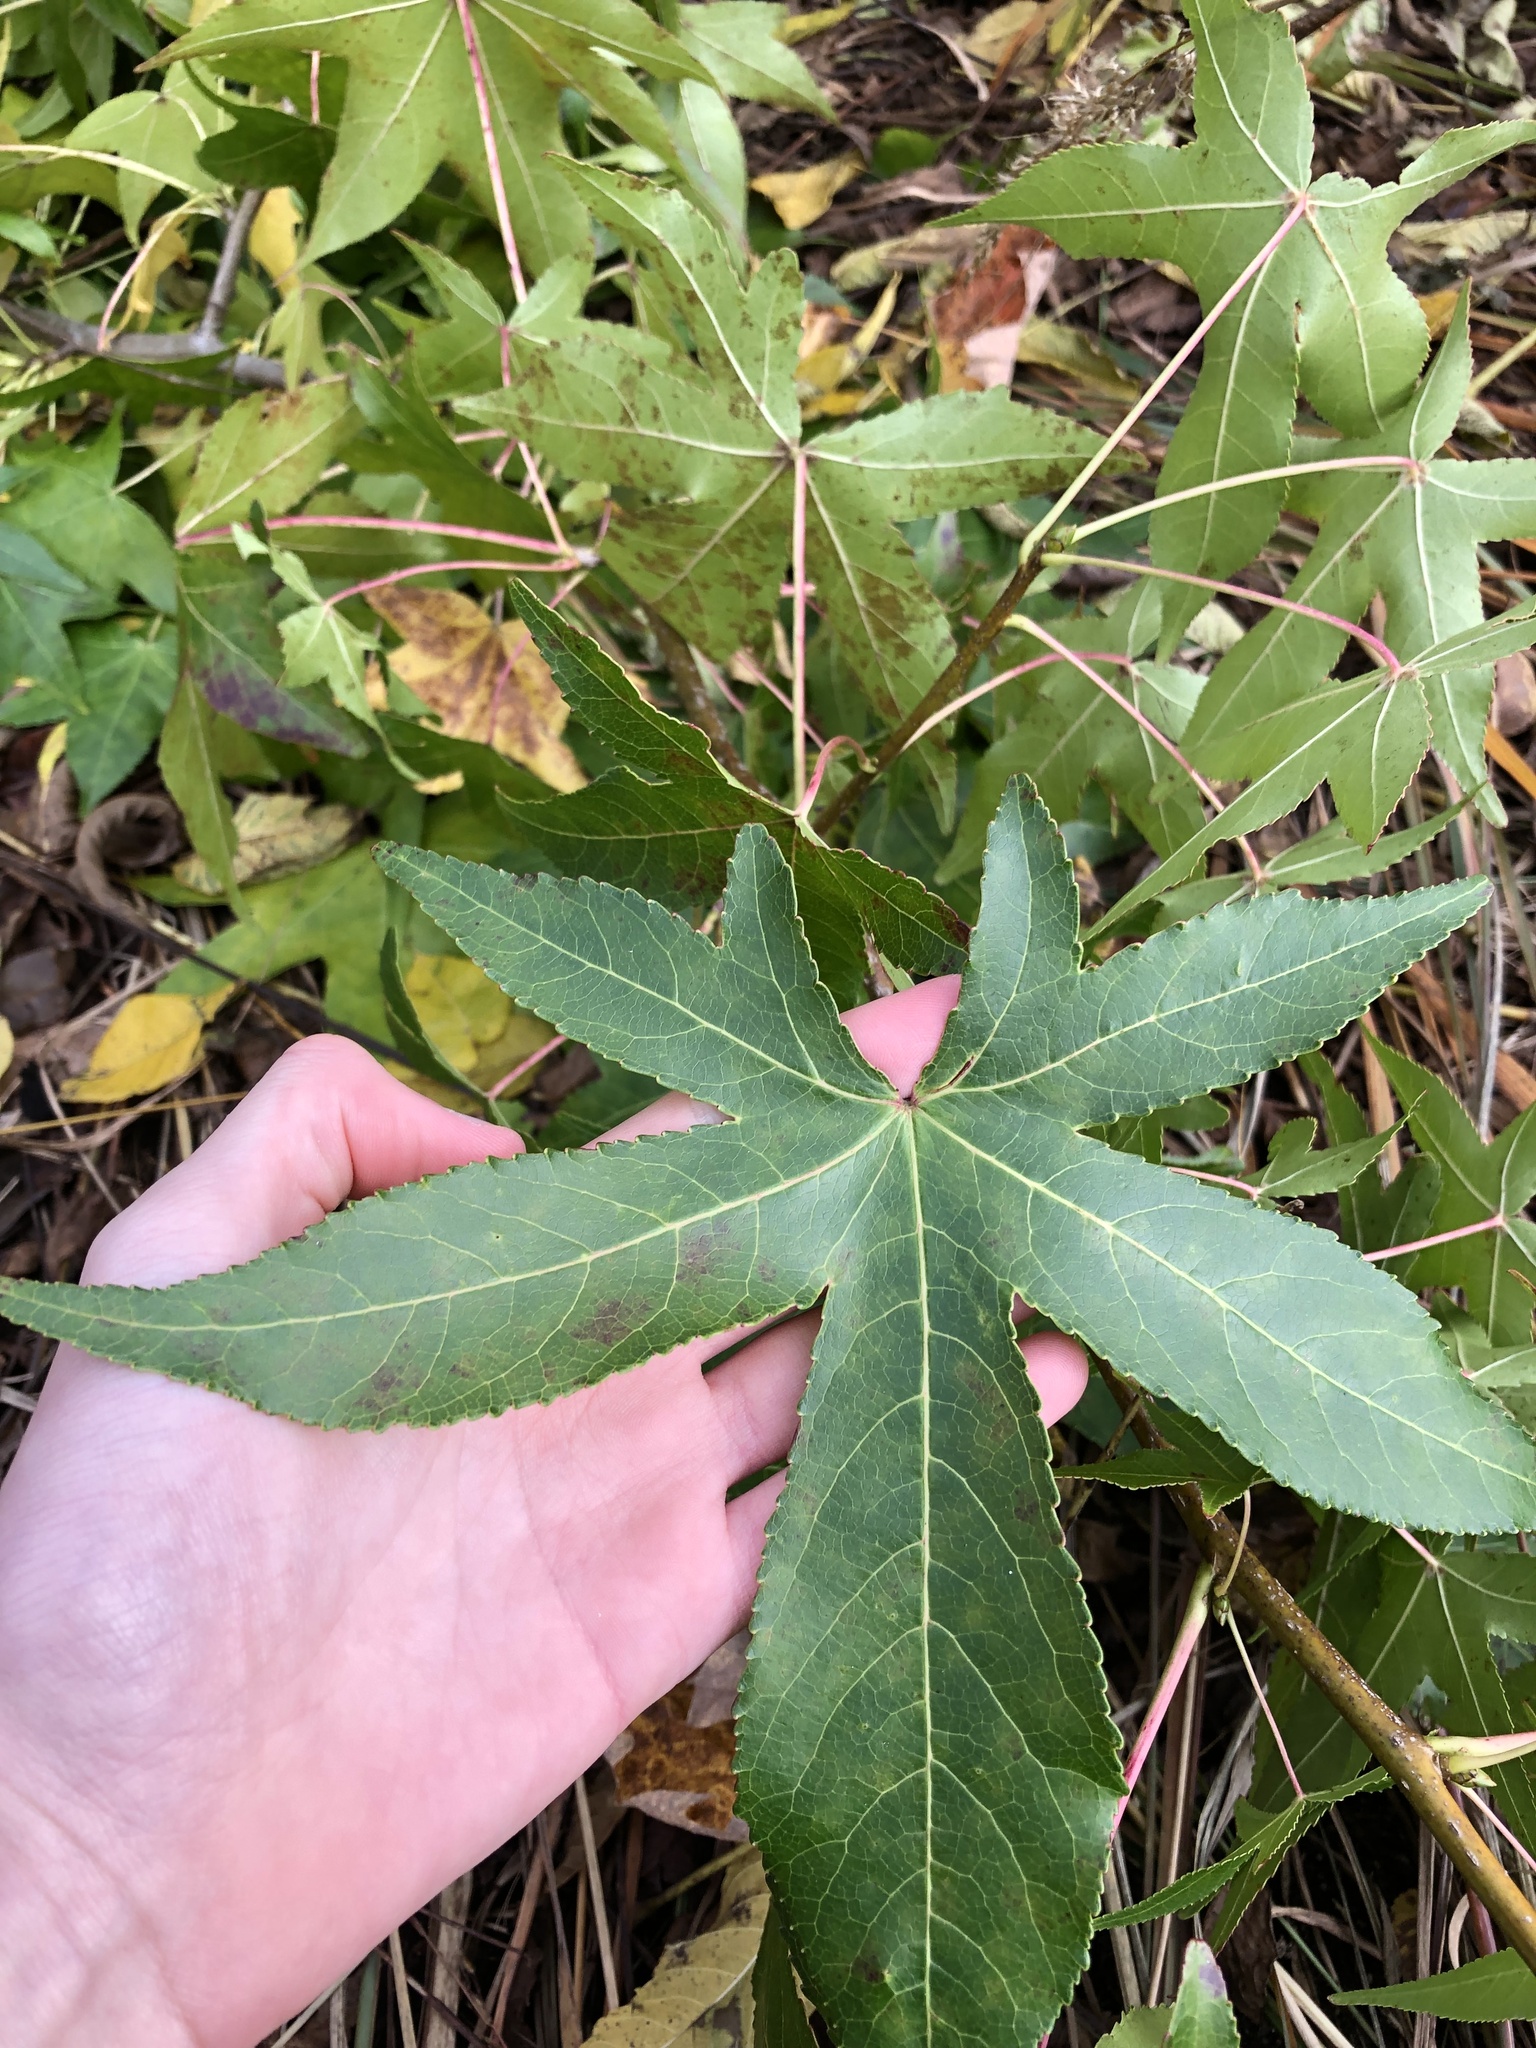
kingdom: Plantae
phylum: Tracheophyta
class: Magnoliopsida
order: Saxifragales
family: Altingiaceae
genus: Liquidambar
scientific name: Liquidambar styraciflua
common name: Sweet gum
